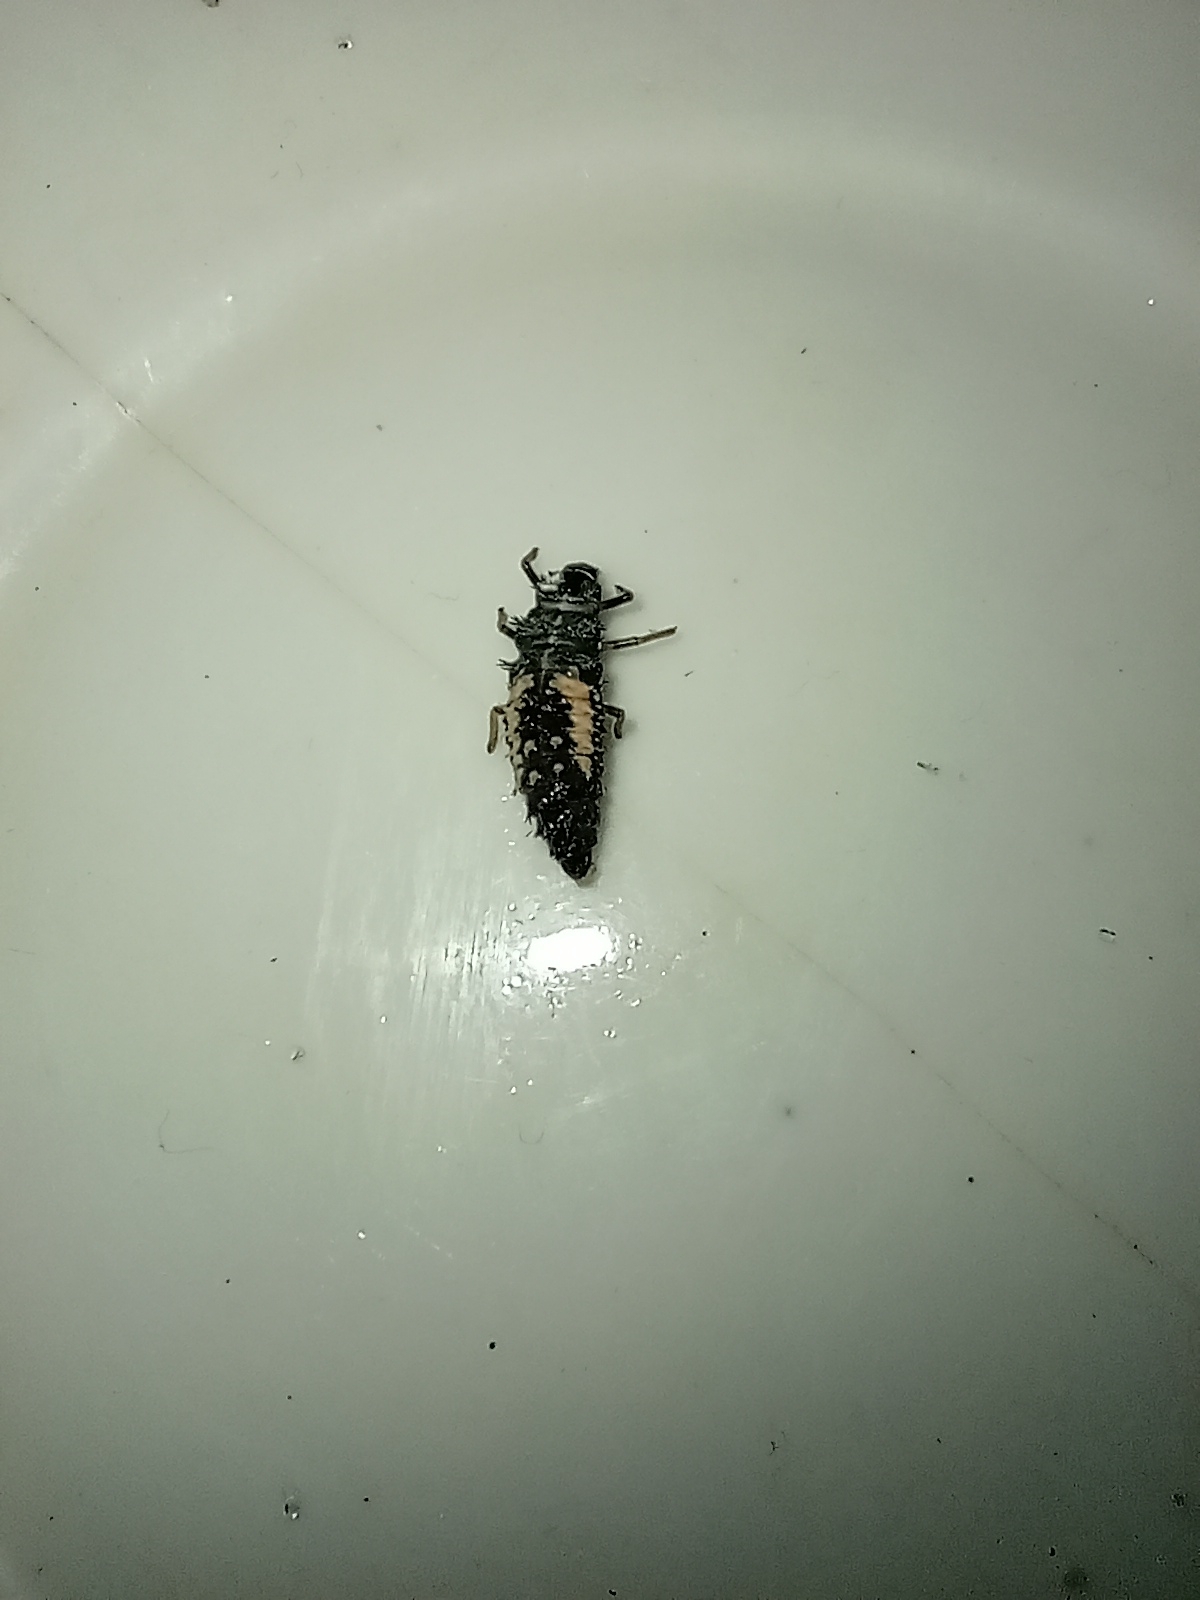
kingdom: Animalia
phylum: Arthropoda
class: Insecta
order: Coleoptera
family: Coccinellidae
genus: Harmonia
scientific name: Harmonia axyridis
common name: Harlequin ladybird
